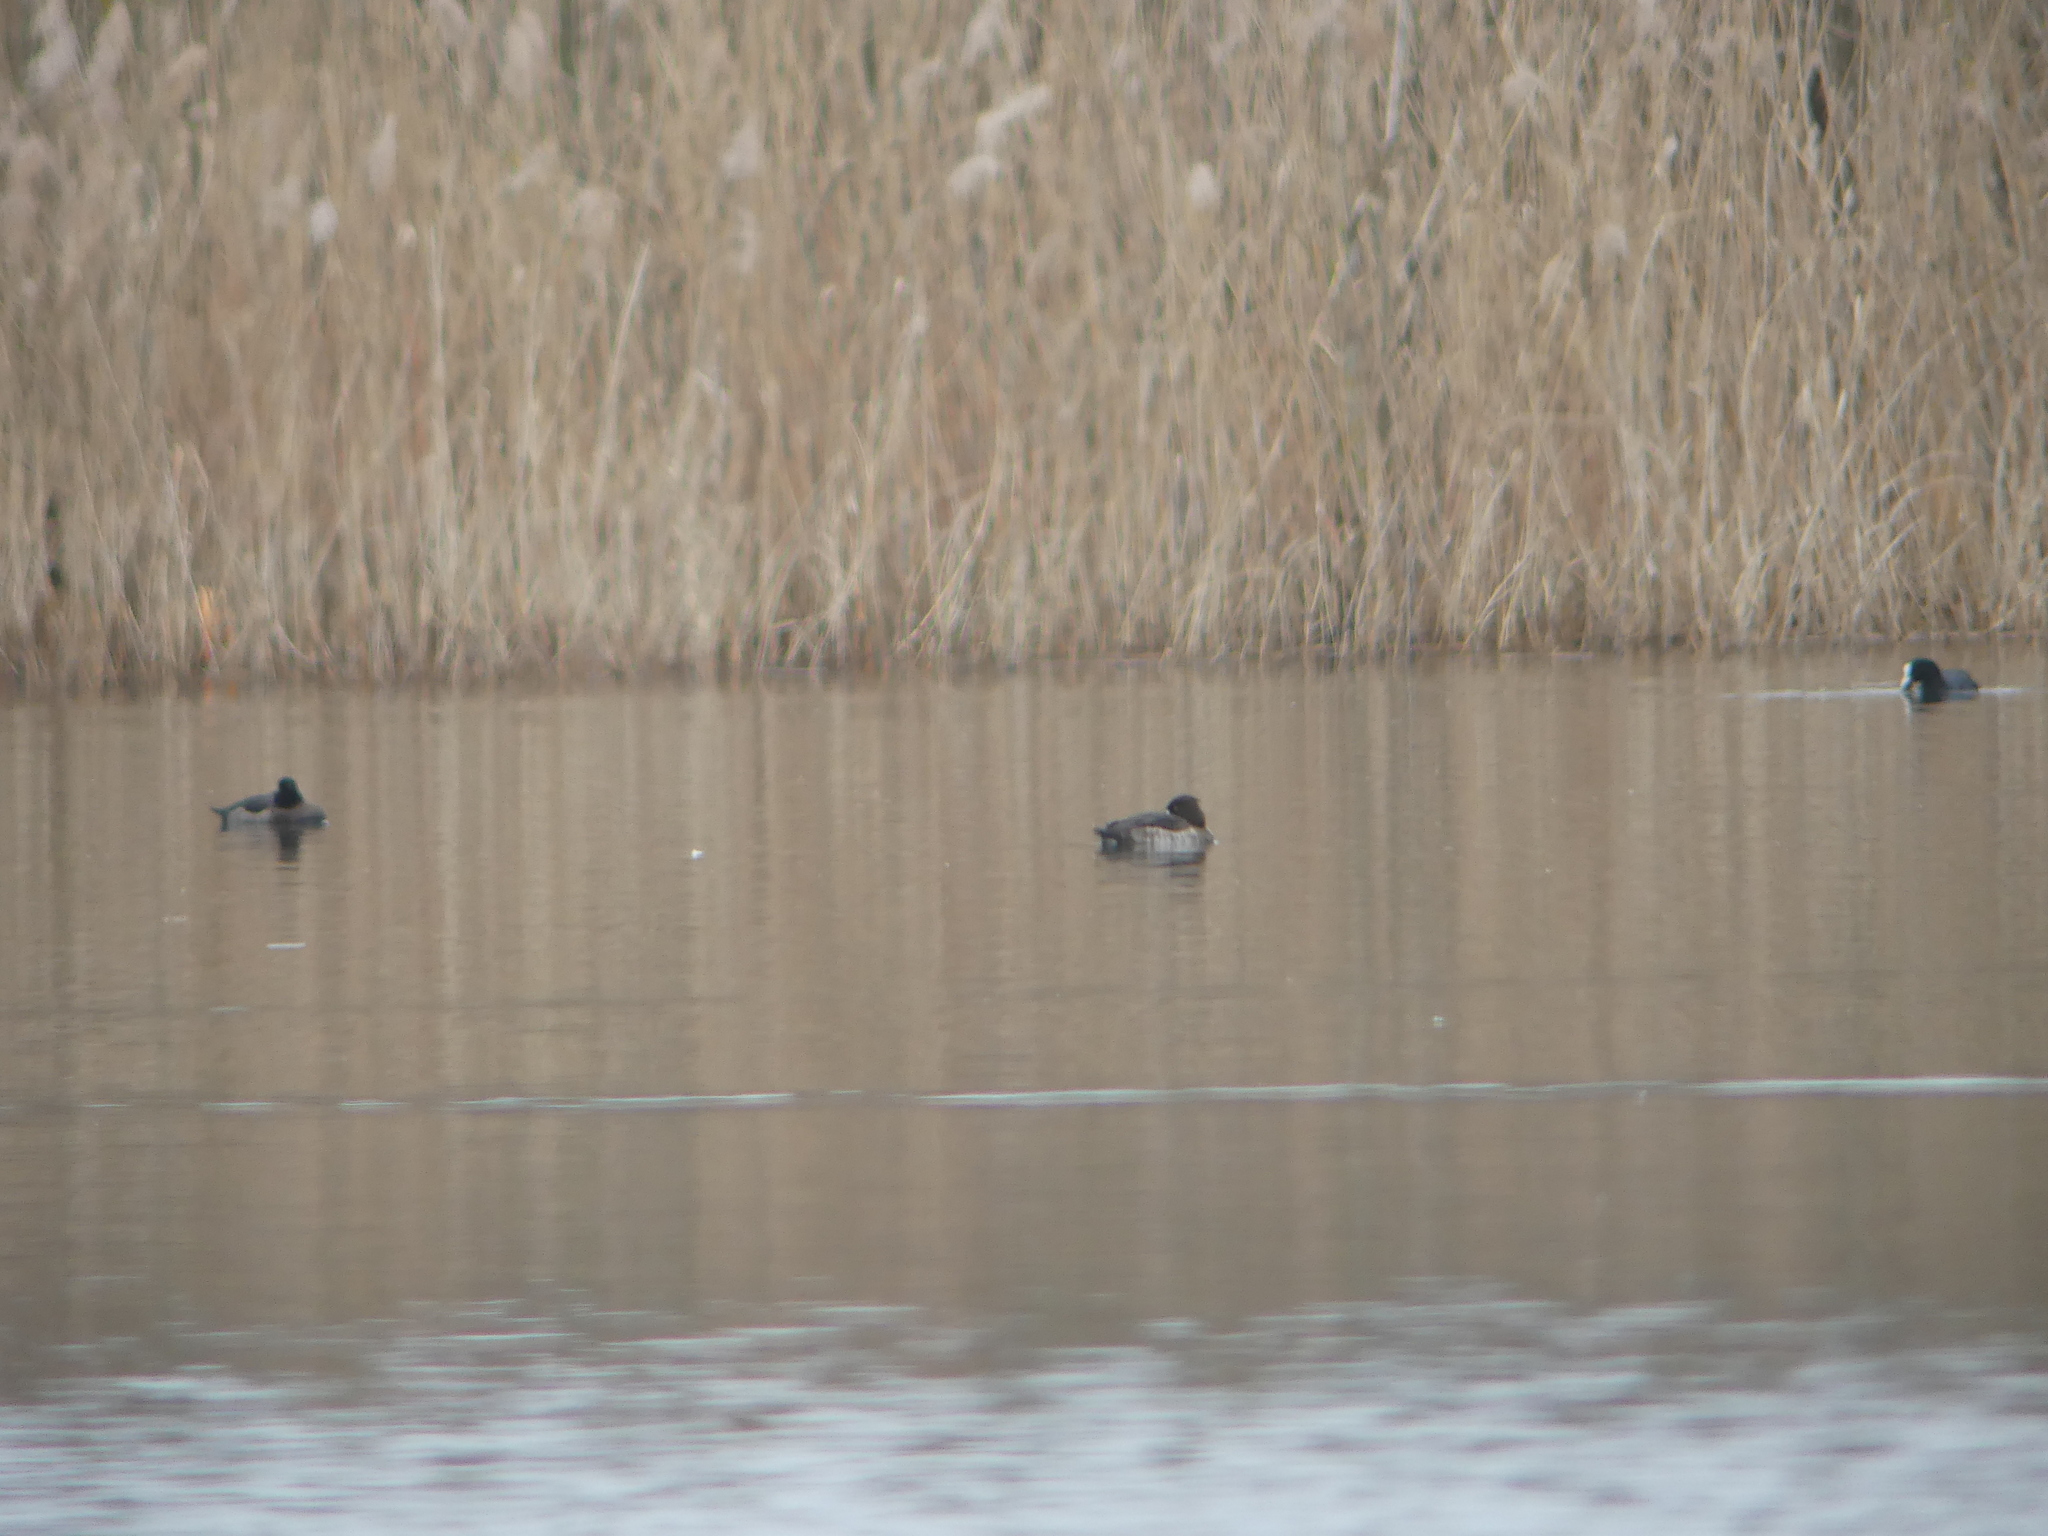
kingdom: Animalia
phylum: Chordata
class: Aves
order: Anseriformes
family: Anatidae
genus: Aythya
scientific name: Aythya fuligula
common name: Tufted duck
